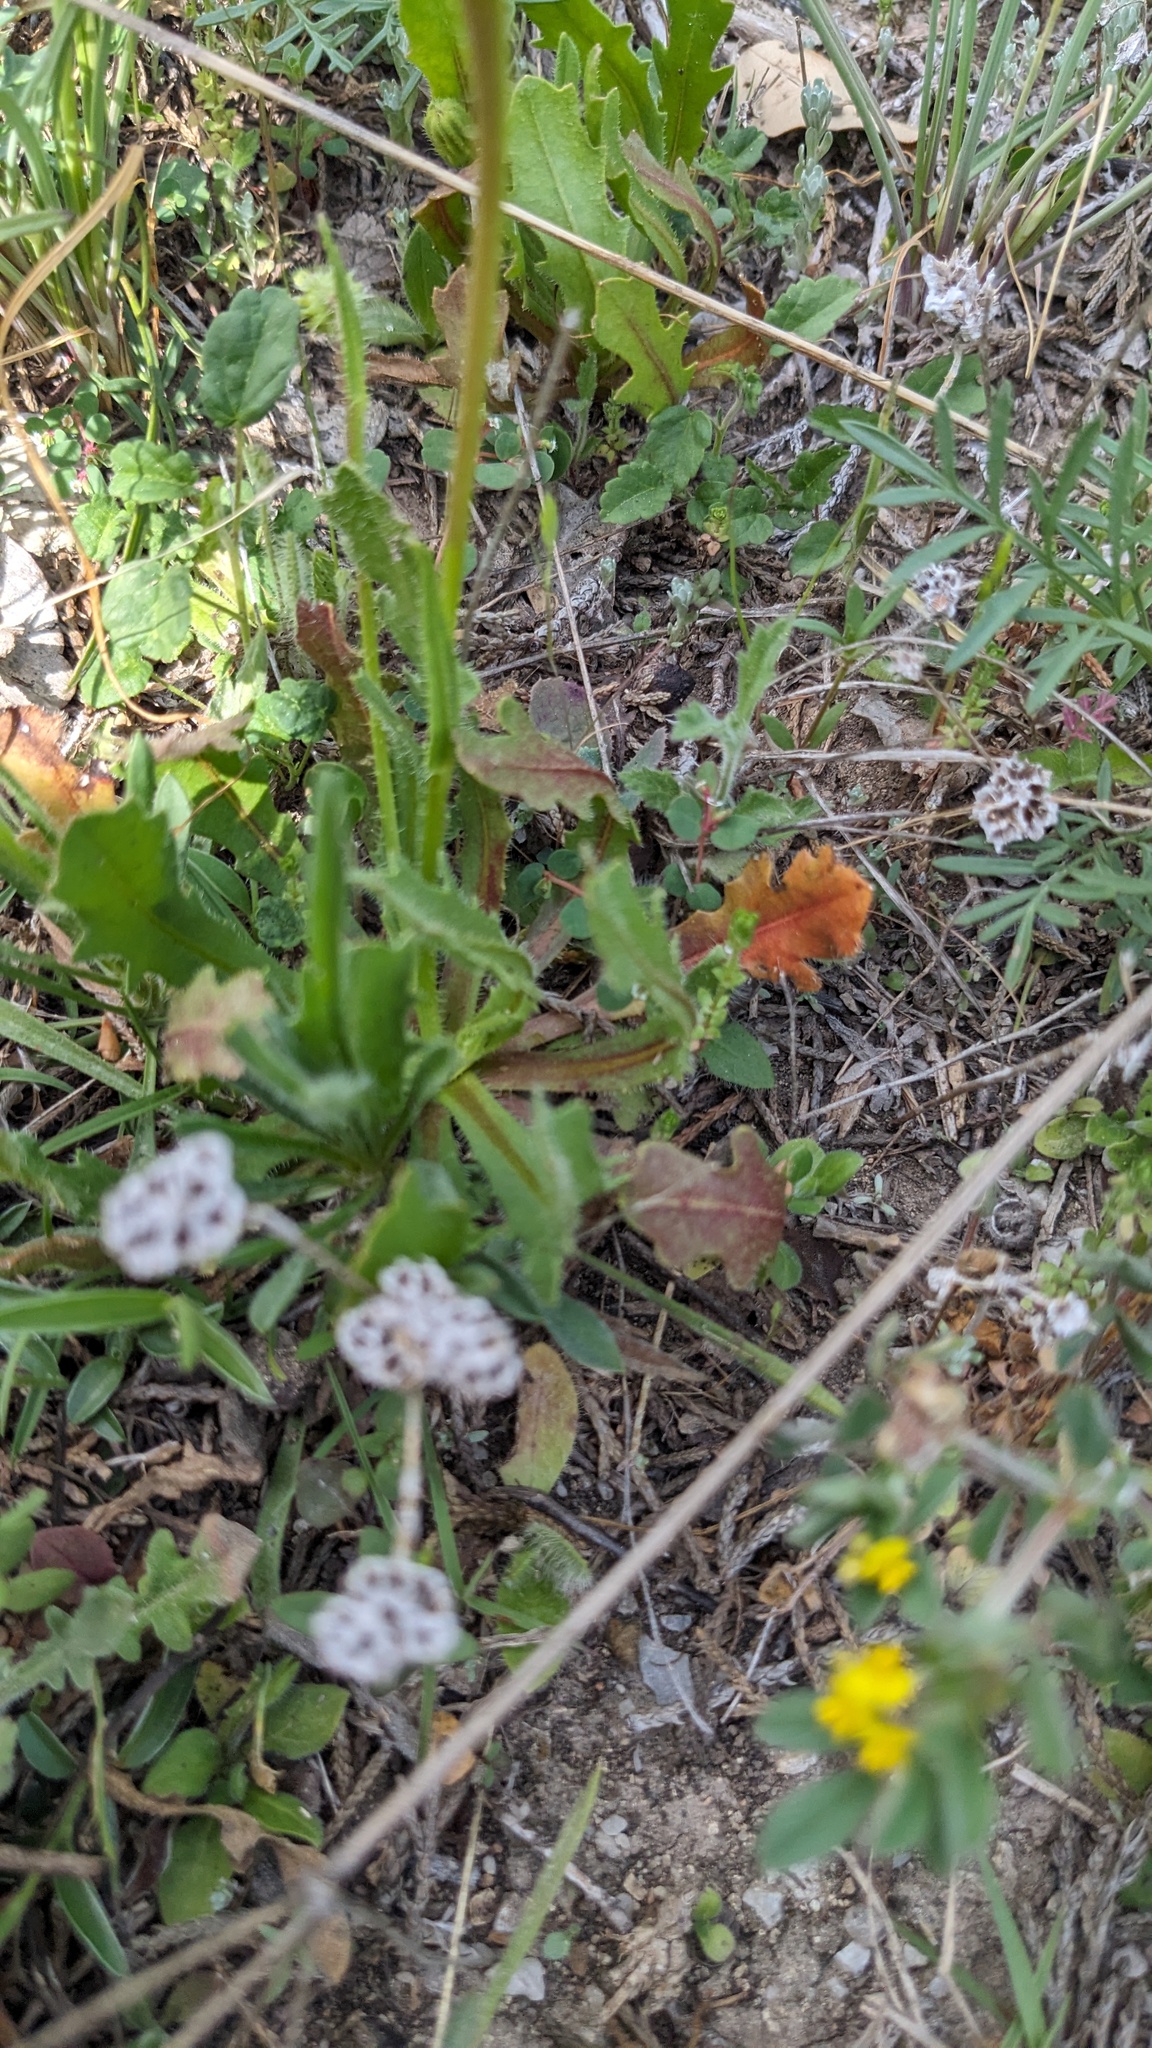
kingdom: Plantae
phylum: Tracheophyta
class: Magnoliopsida
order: Asterales
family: Asteraceae
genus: Hedypnois
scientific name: Hedypnois rhagadioloides
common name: Cretan weed
